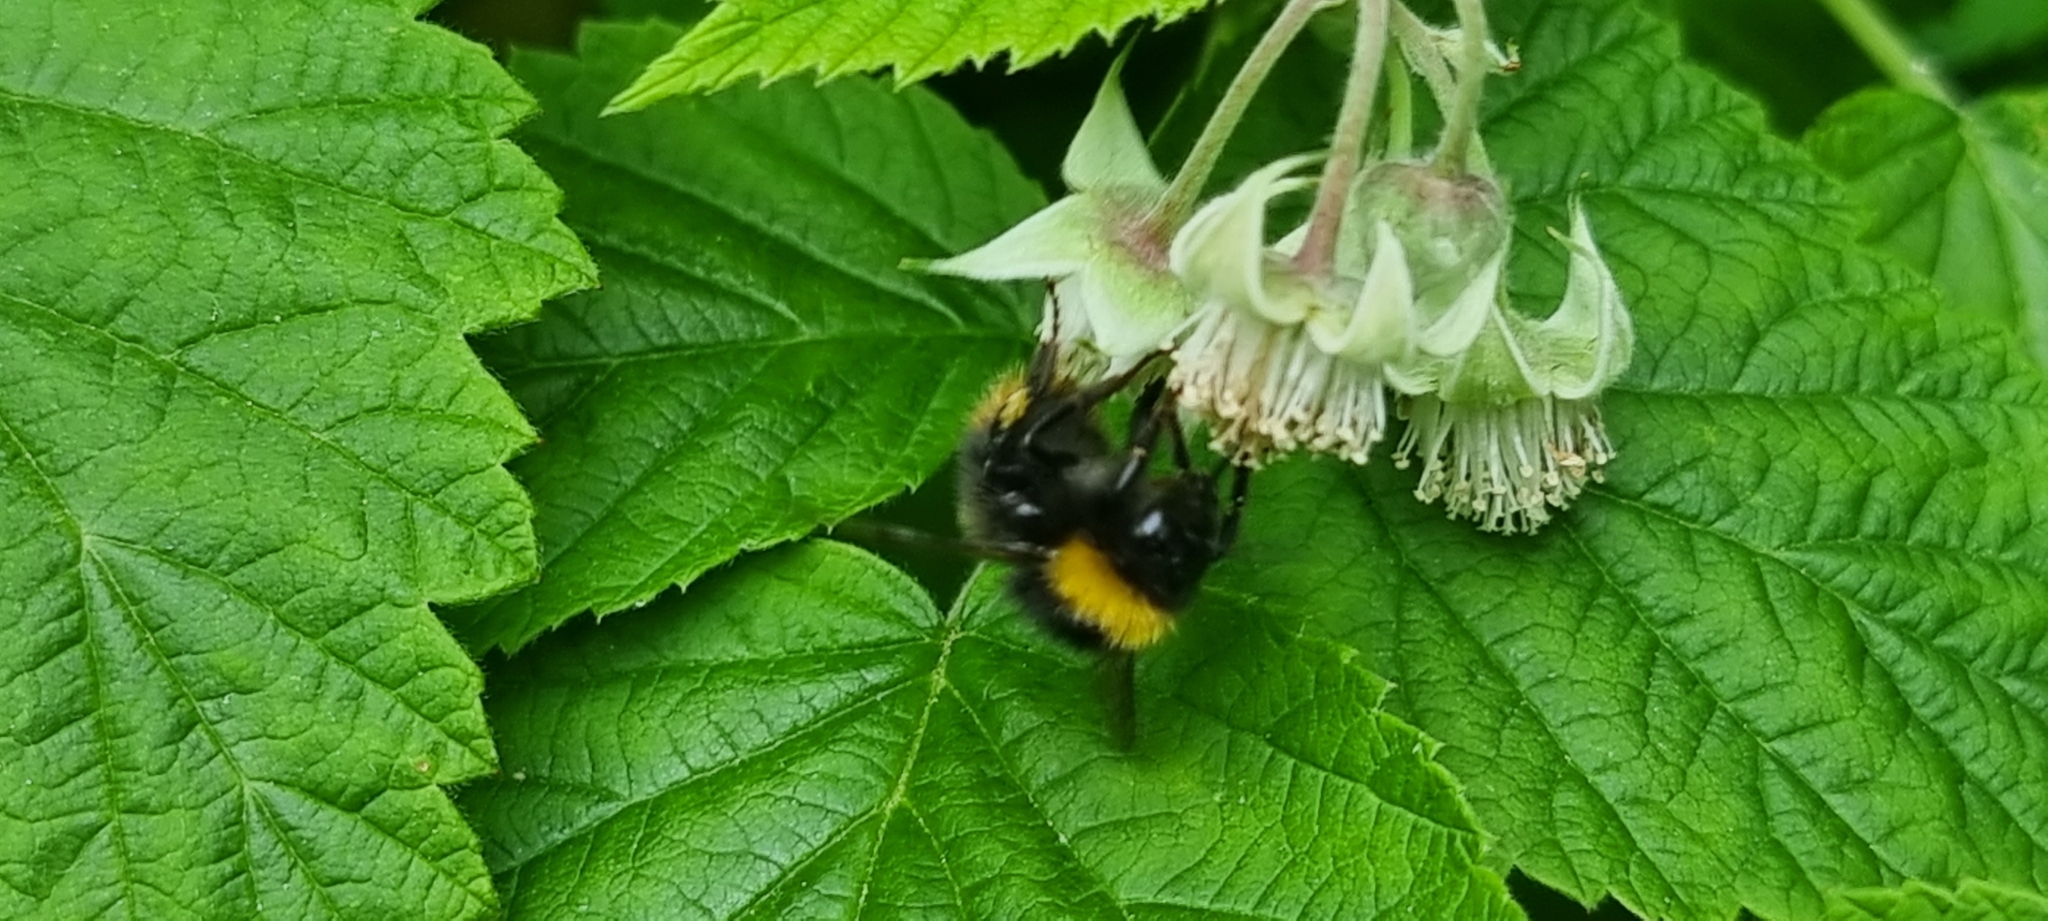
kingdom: Animalia
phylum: Arthropoda
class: Insecta
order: Hymenoptera
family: Apidae
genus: Bombus
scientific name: Bombus pratorum
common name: Early humble-bee
